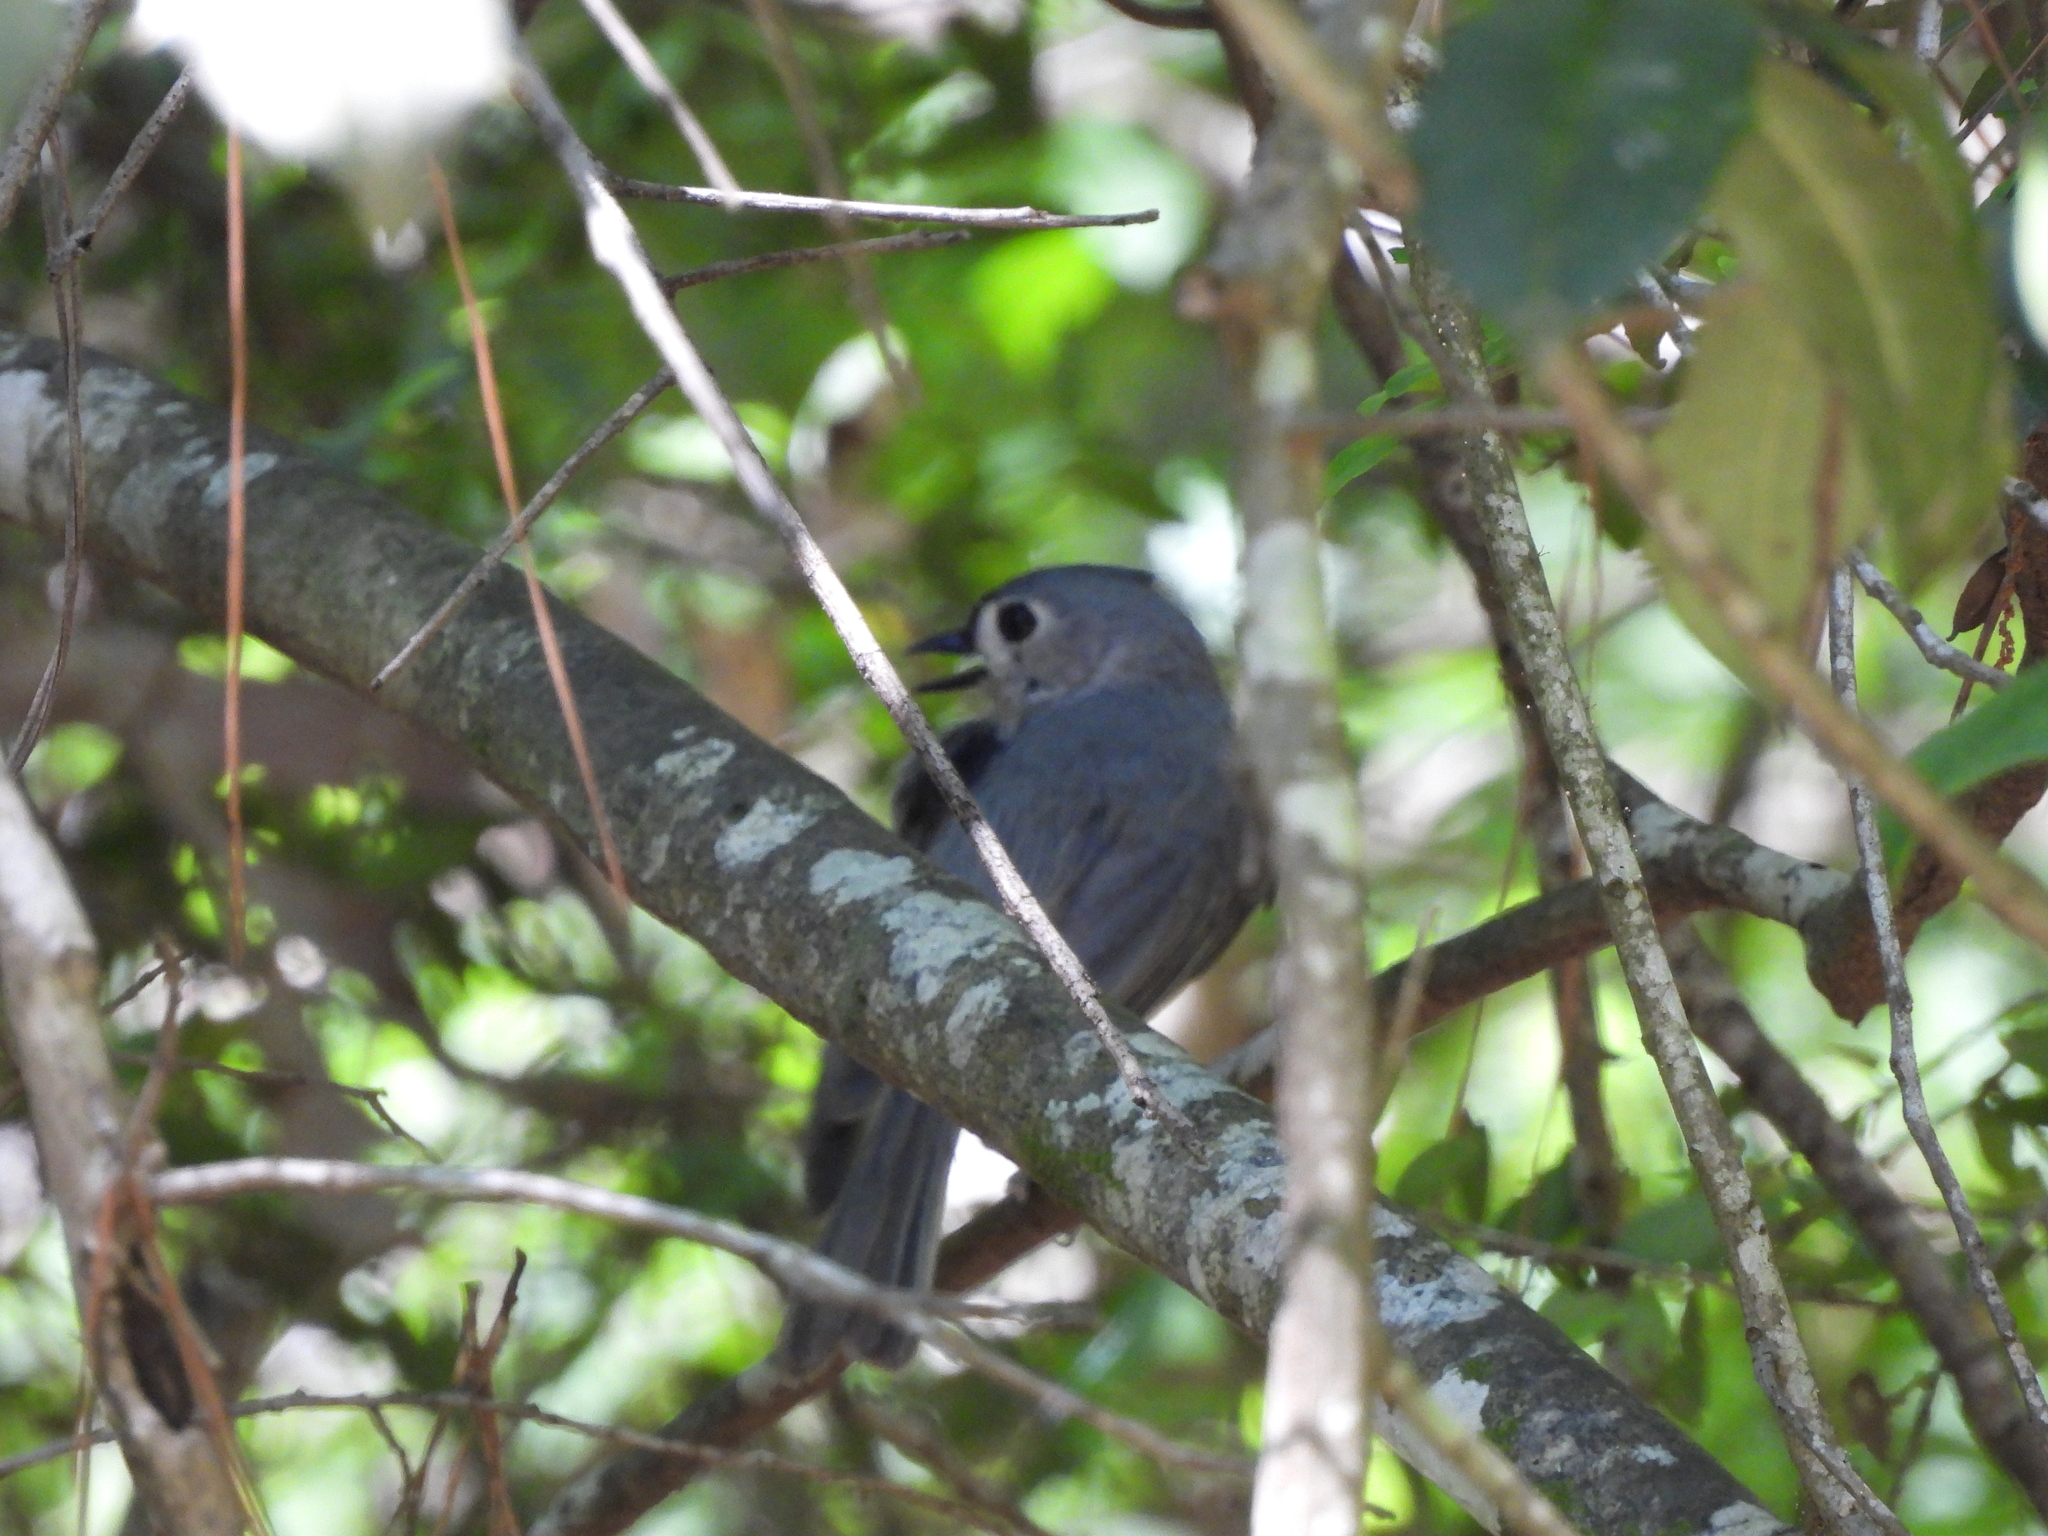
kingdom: Animalia
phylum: Chordata
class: Aves
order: Passeriformes
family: Paridae
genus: Baeolophus
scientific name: Baeolophus bicolor
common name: Tufted titmouse
